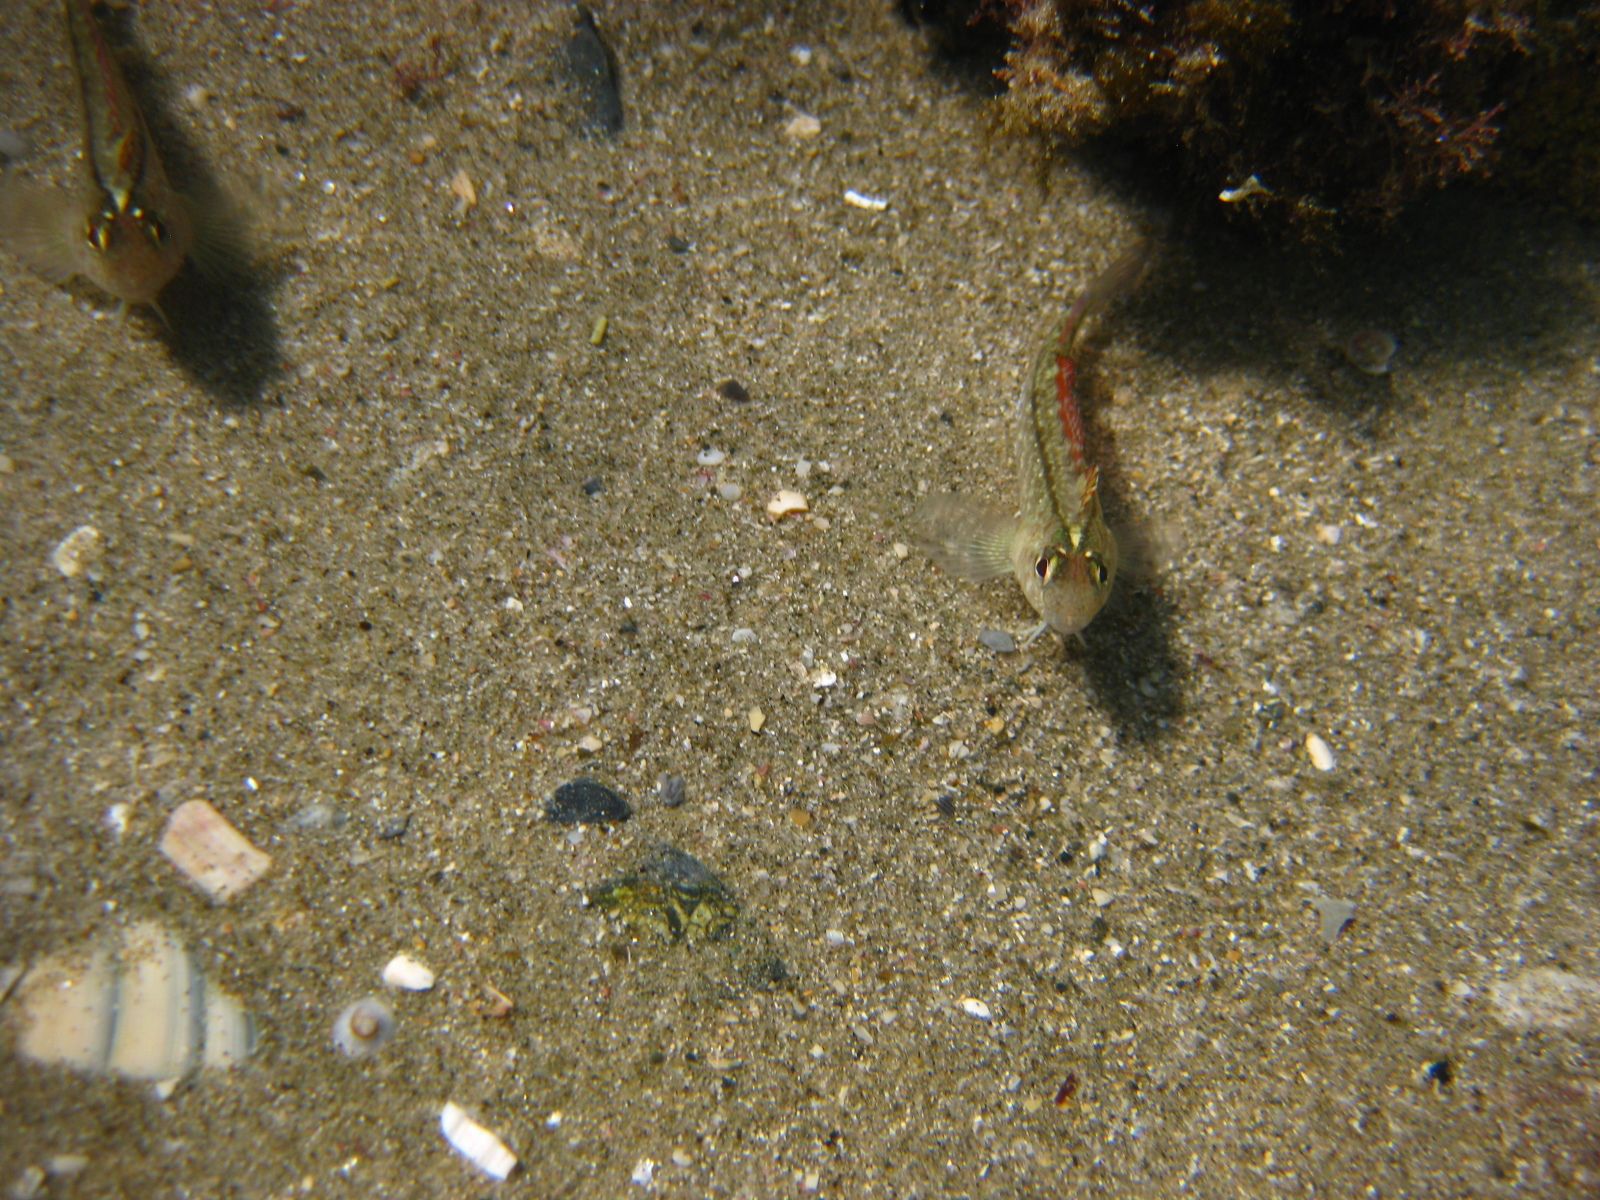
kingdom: Animalia
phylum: Chordata
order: Perciformes
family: Tripterygiidae
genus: Forsterygion
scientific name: Forsterygion lapillum
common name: Common triplefin
